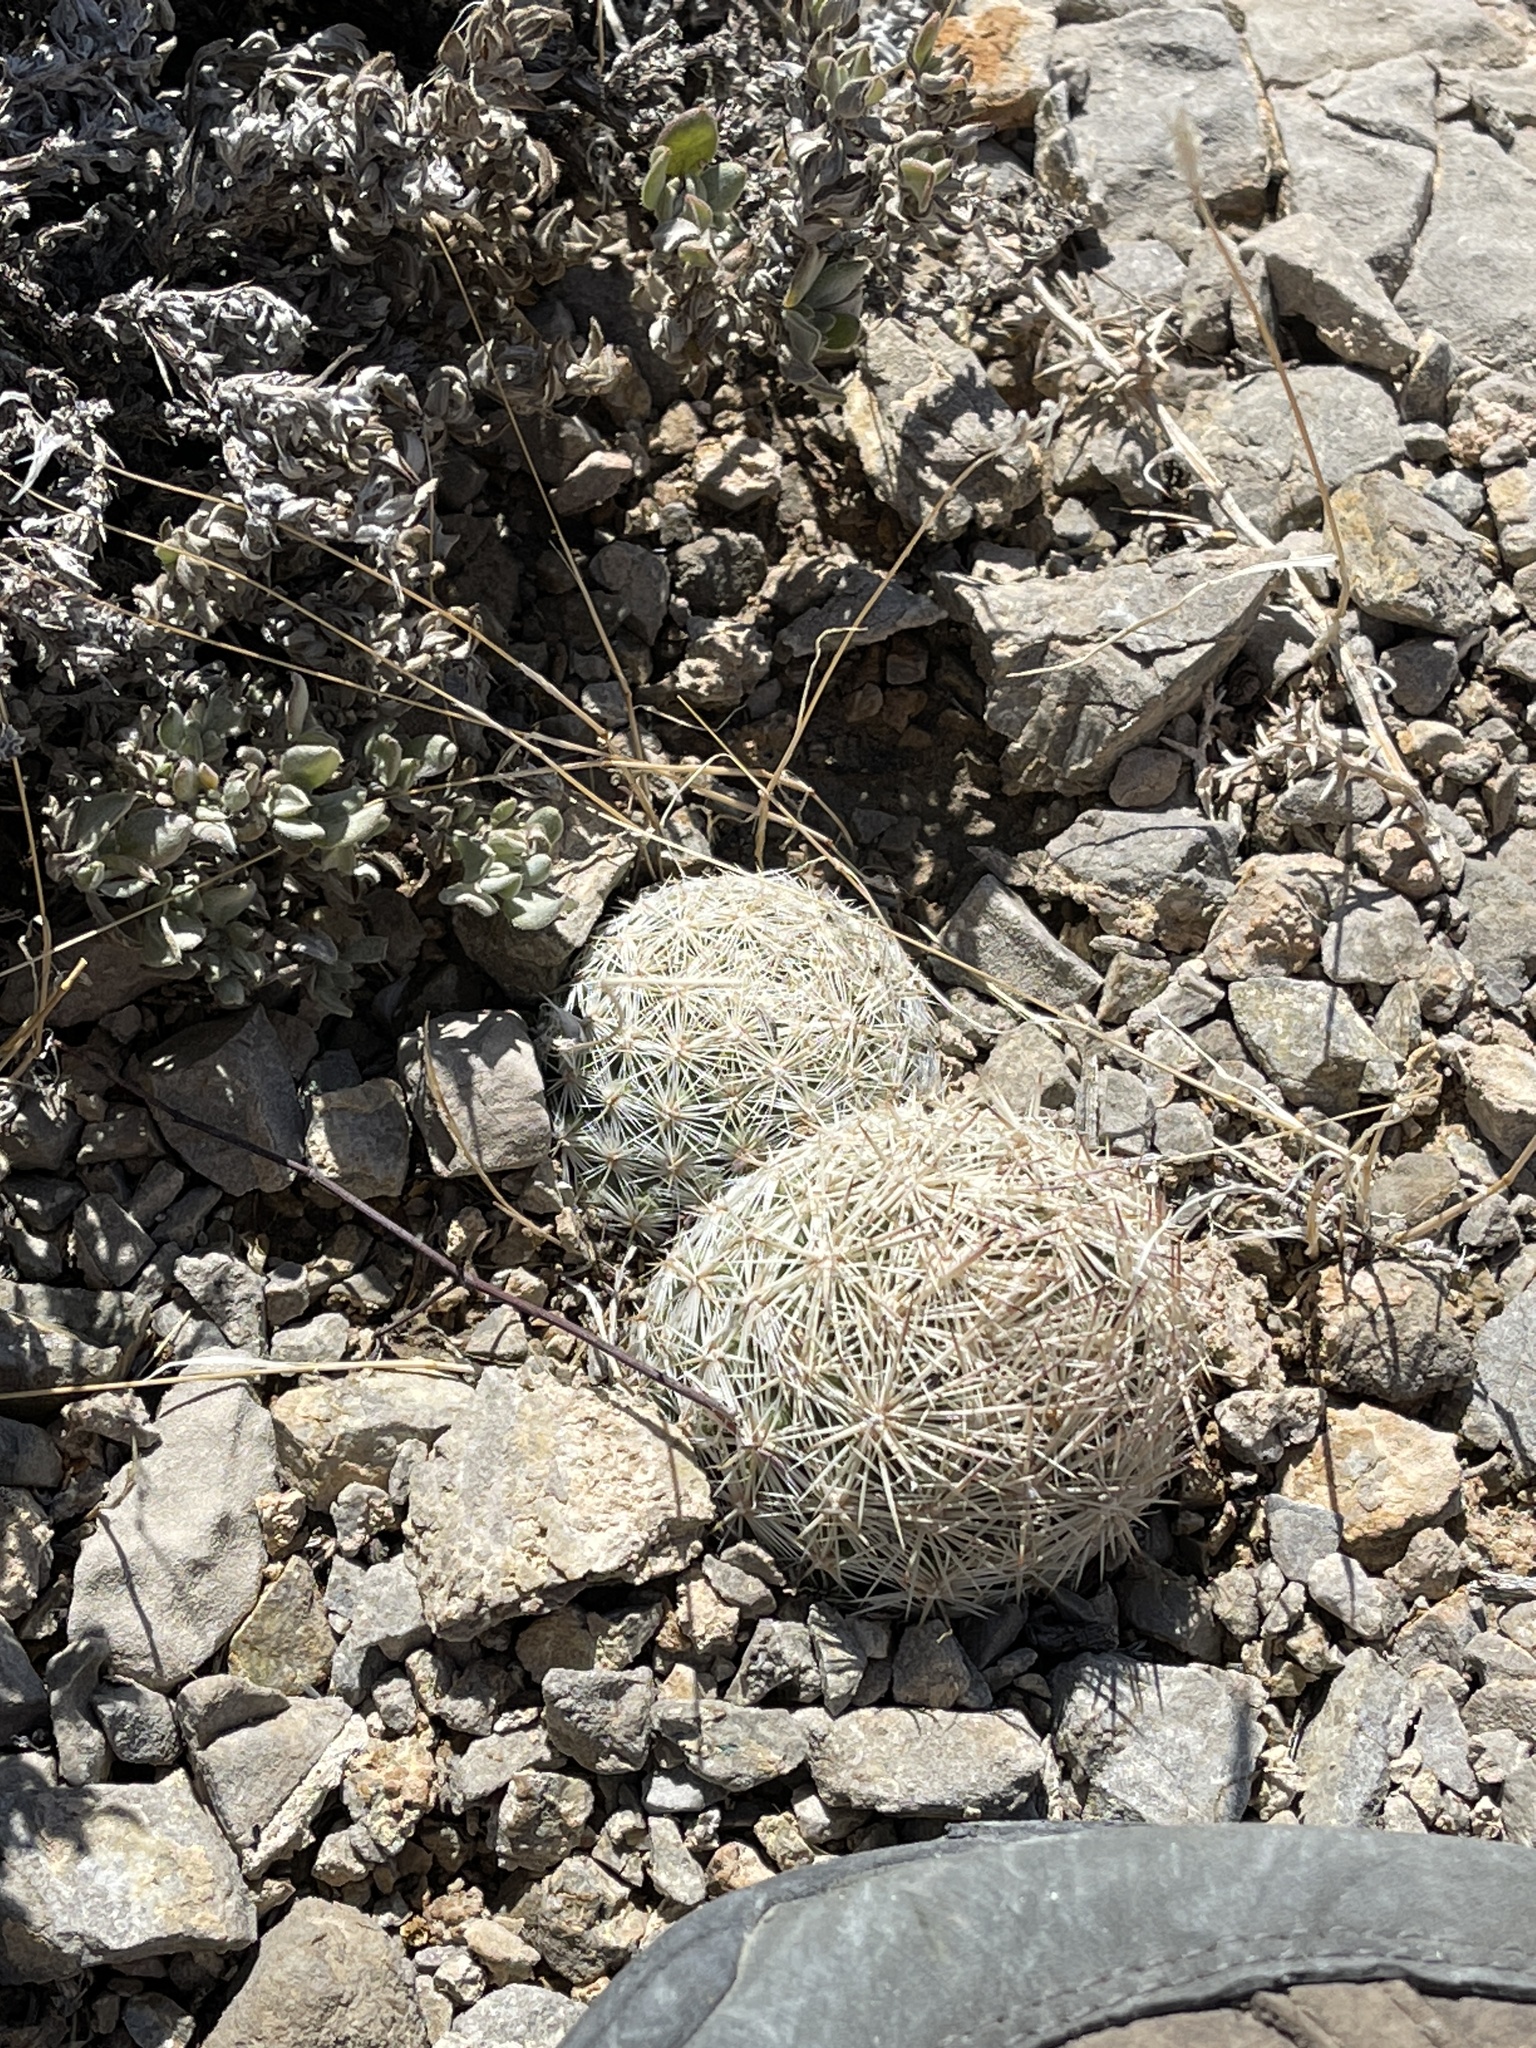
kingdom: Plantae
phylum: Tracheophyta
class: Magnoliopsida
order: Caryophyllales
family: Cactaceae
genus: Pelecyphora
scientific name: Pelecyphora dasyacantha
